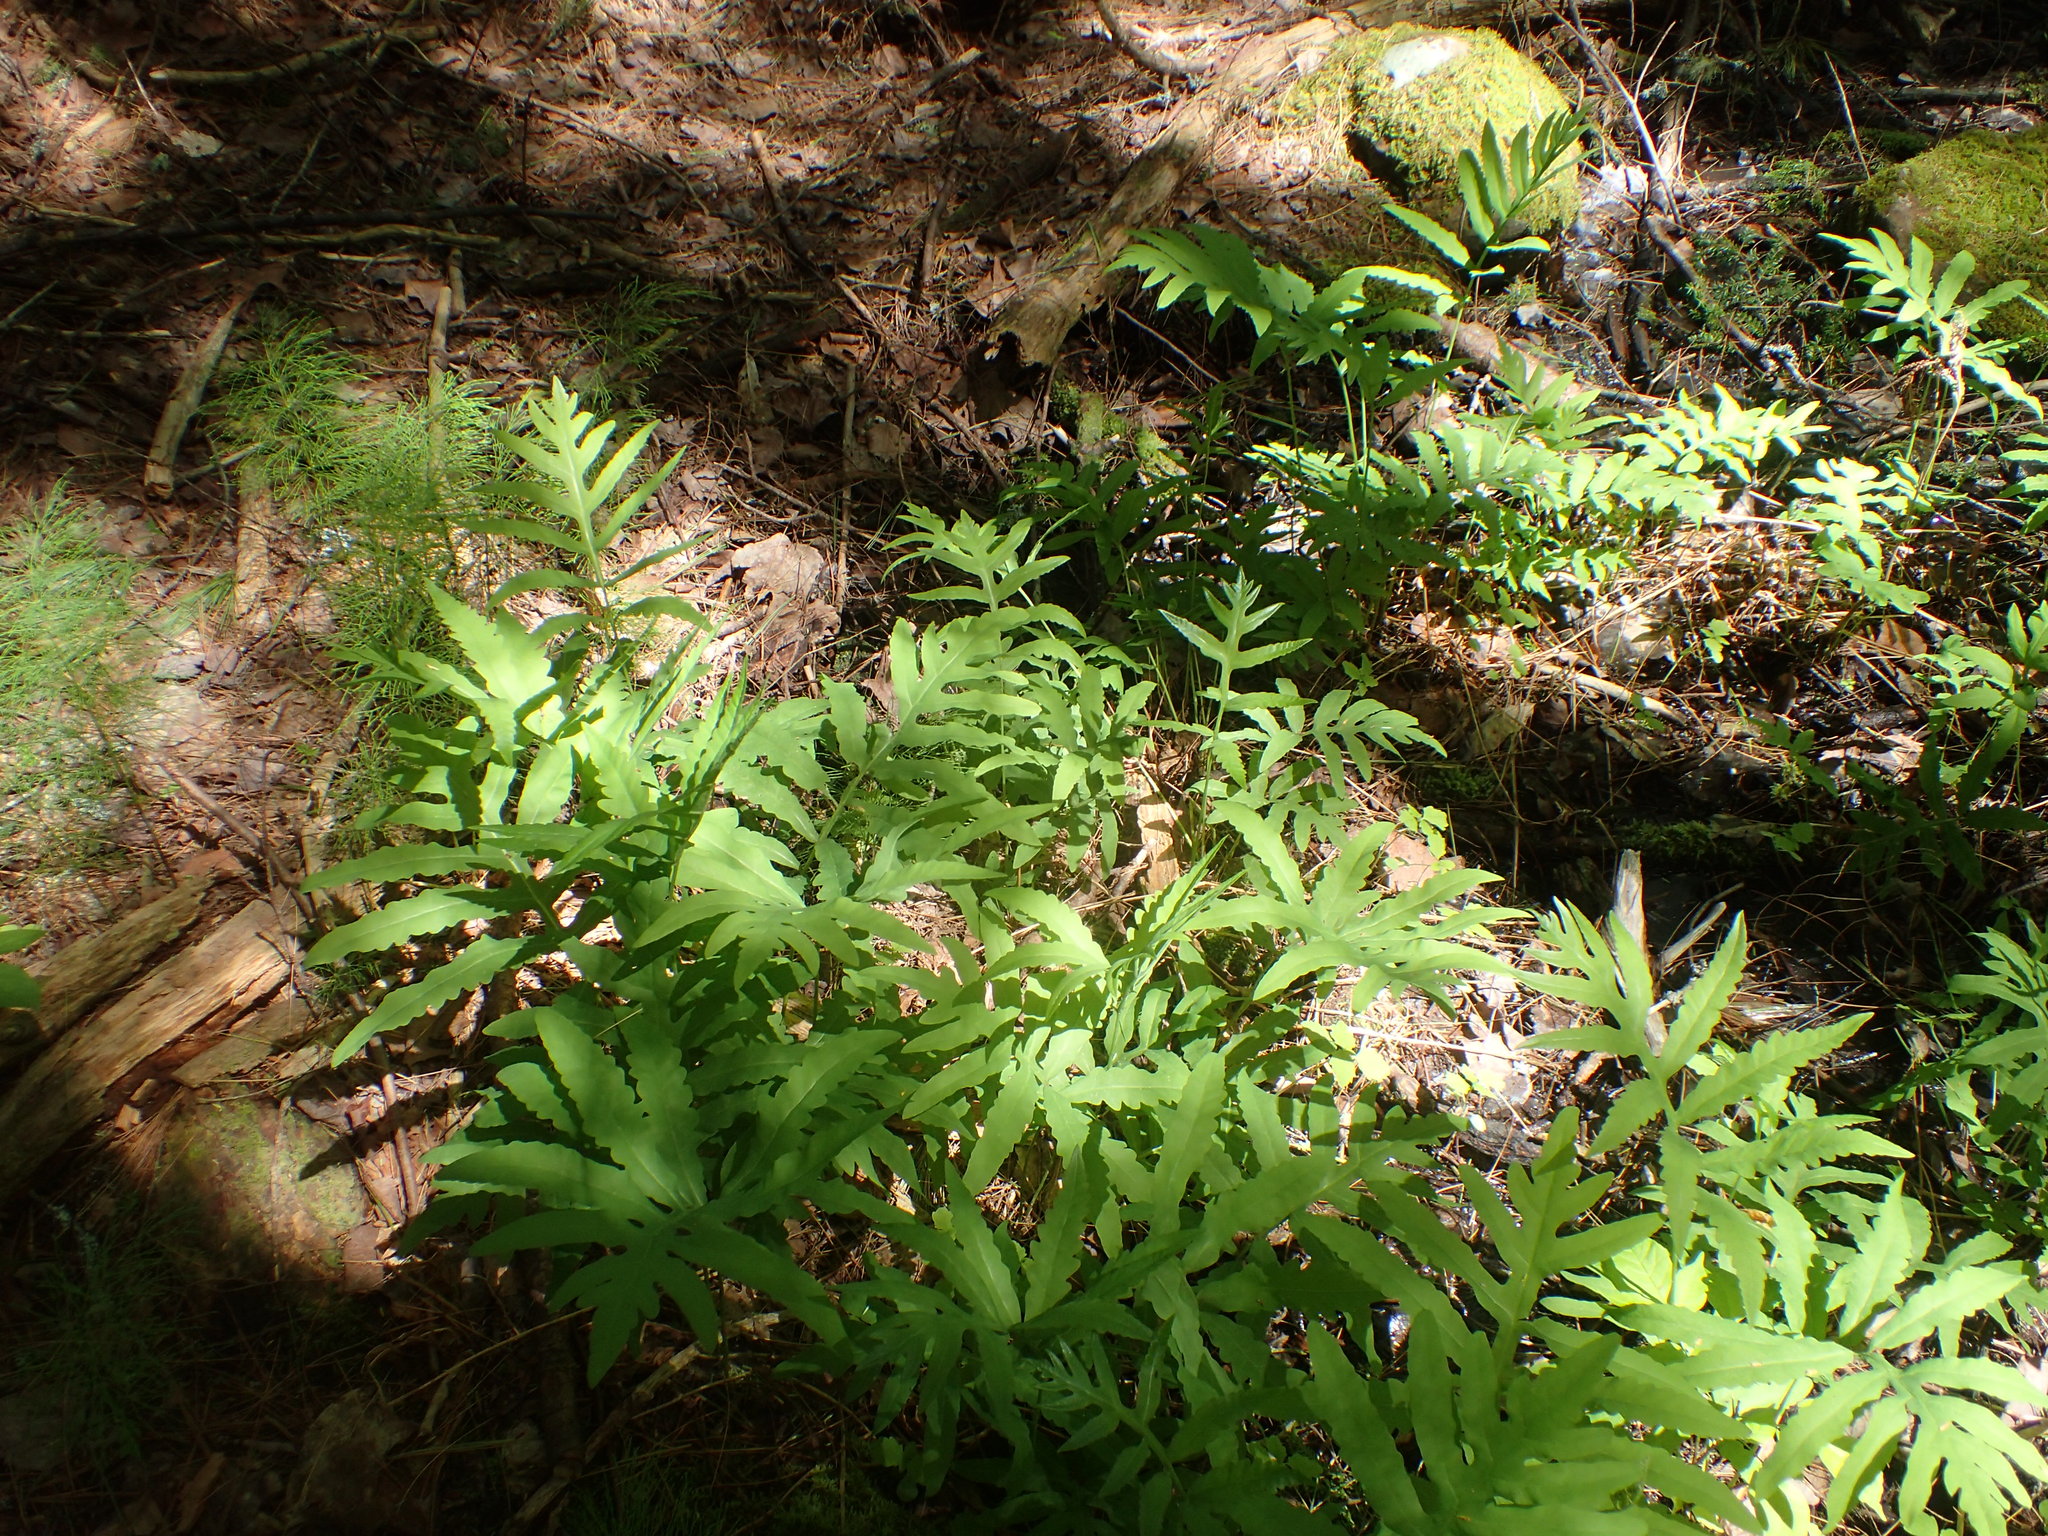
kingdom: Plantae
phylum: Tracheophyta
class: Polypodiopsida
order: Polypodiales
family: Onocleaceae
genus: Onoclea
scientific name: Onoclea sensibilis
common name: Sensitive fern
